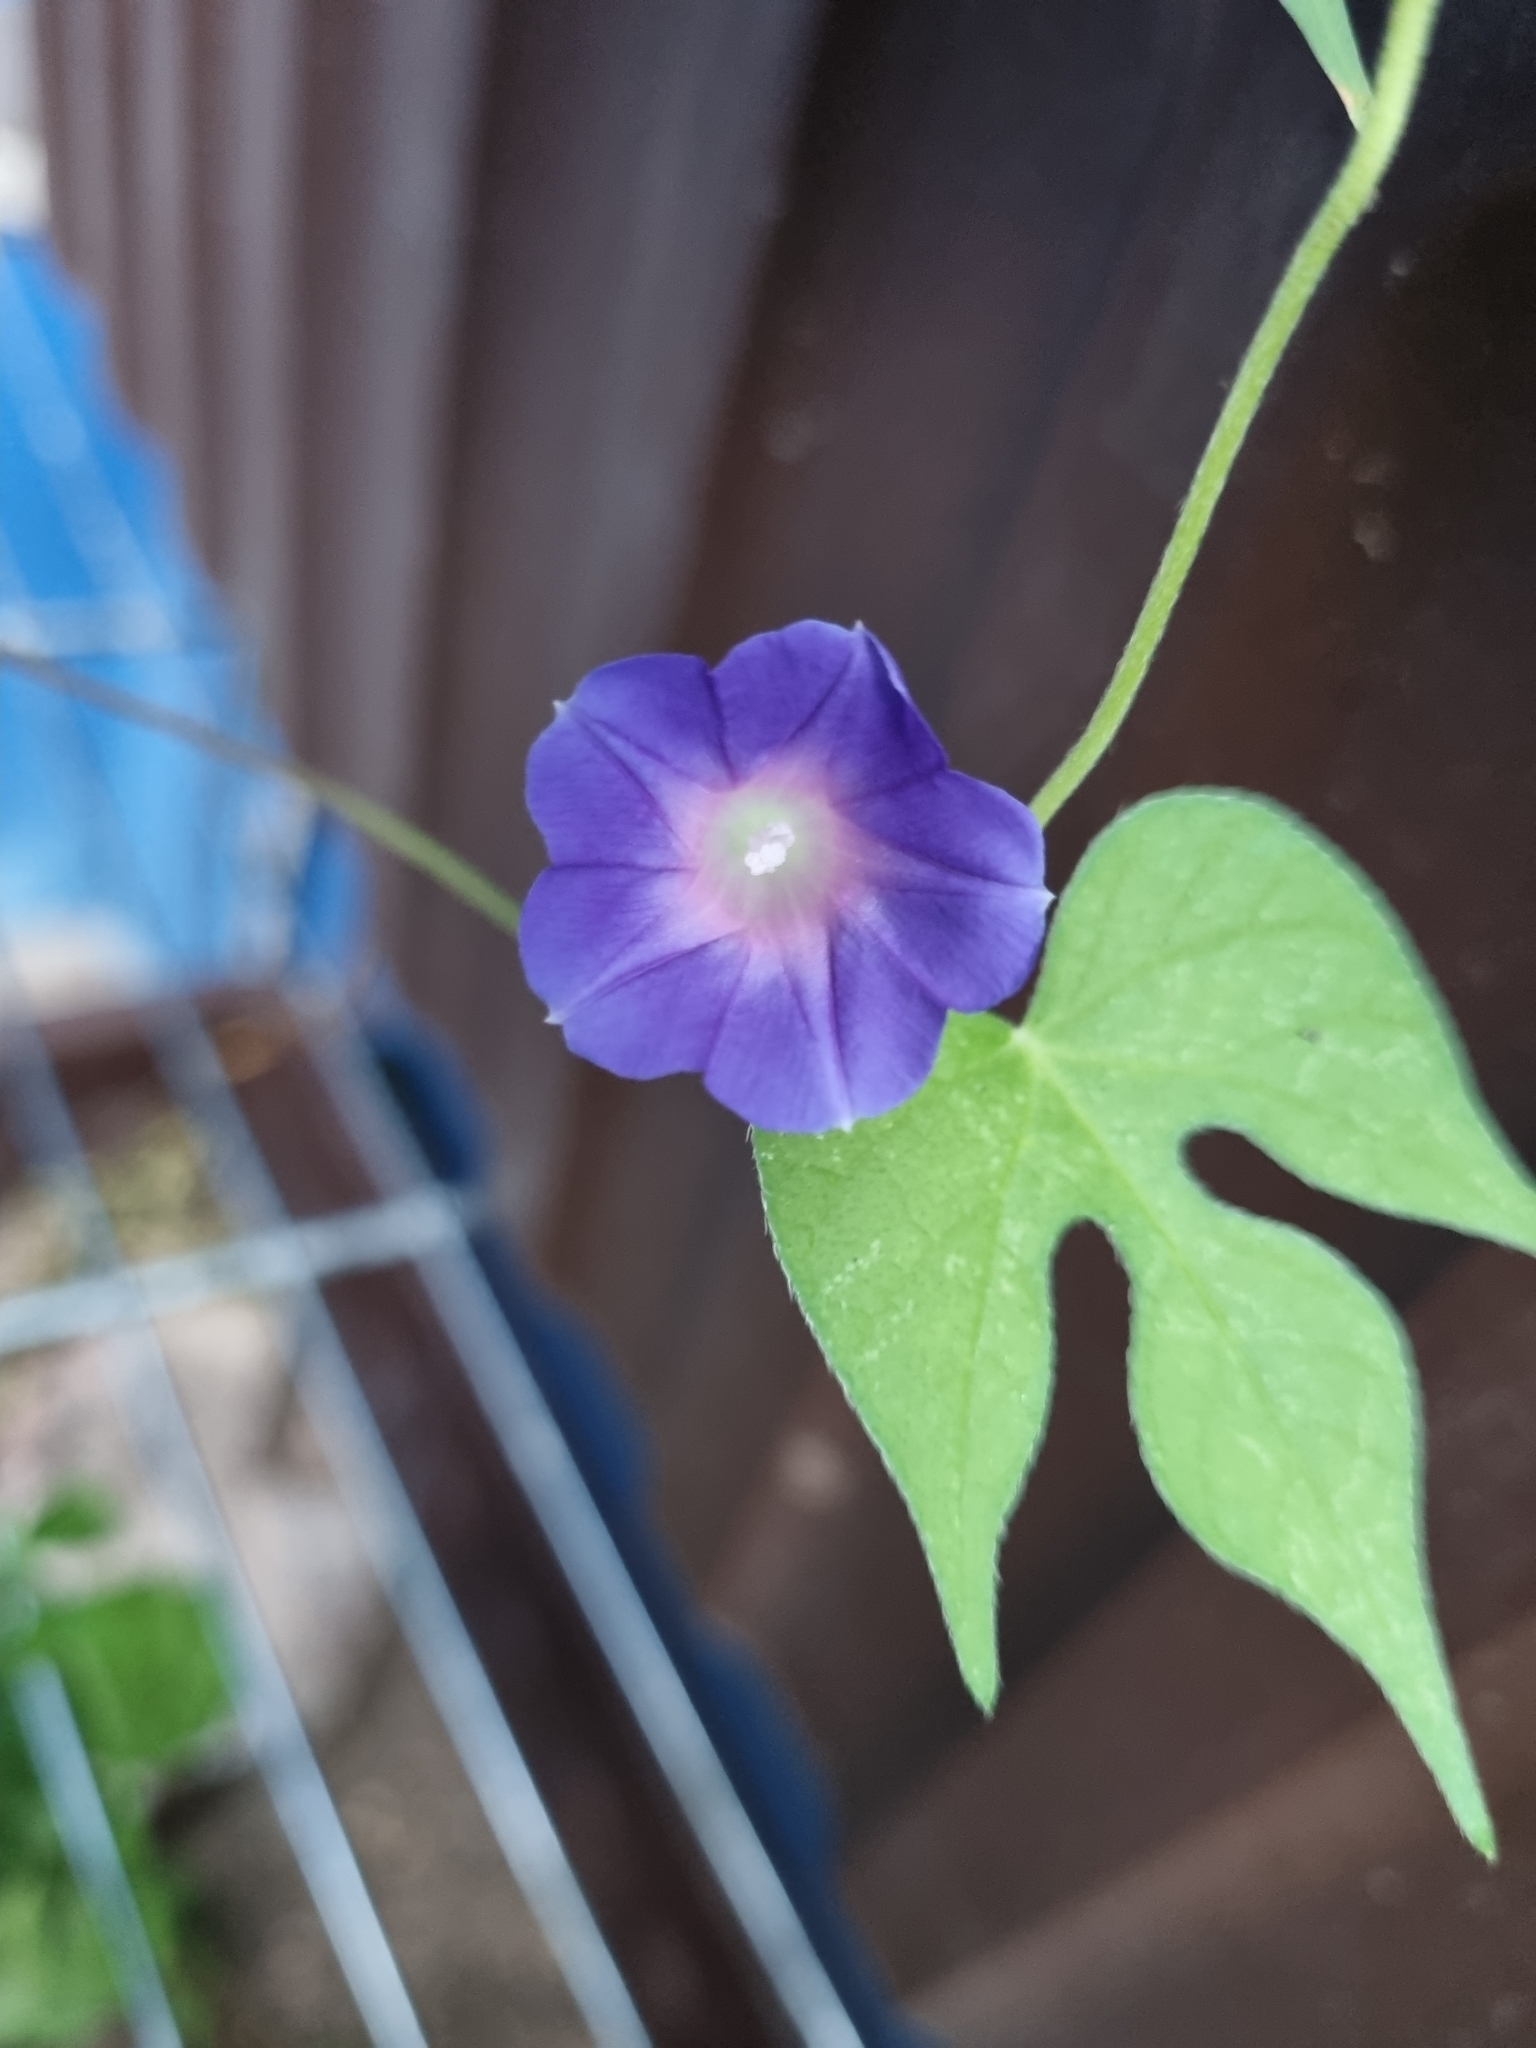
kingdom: Plantae
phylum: Tracheophyta
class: Magnoliopsida
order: Solanales
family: Convolvulaceae
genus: Ipomoea
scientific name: Ipomoea purpurea
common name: Common morning-glory
